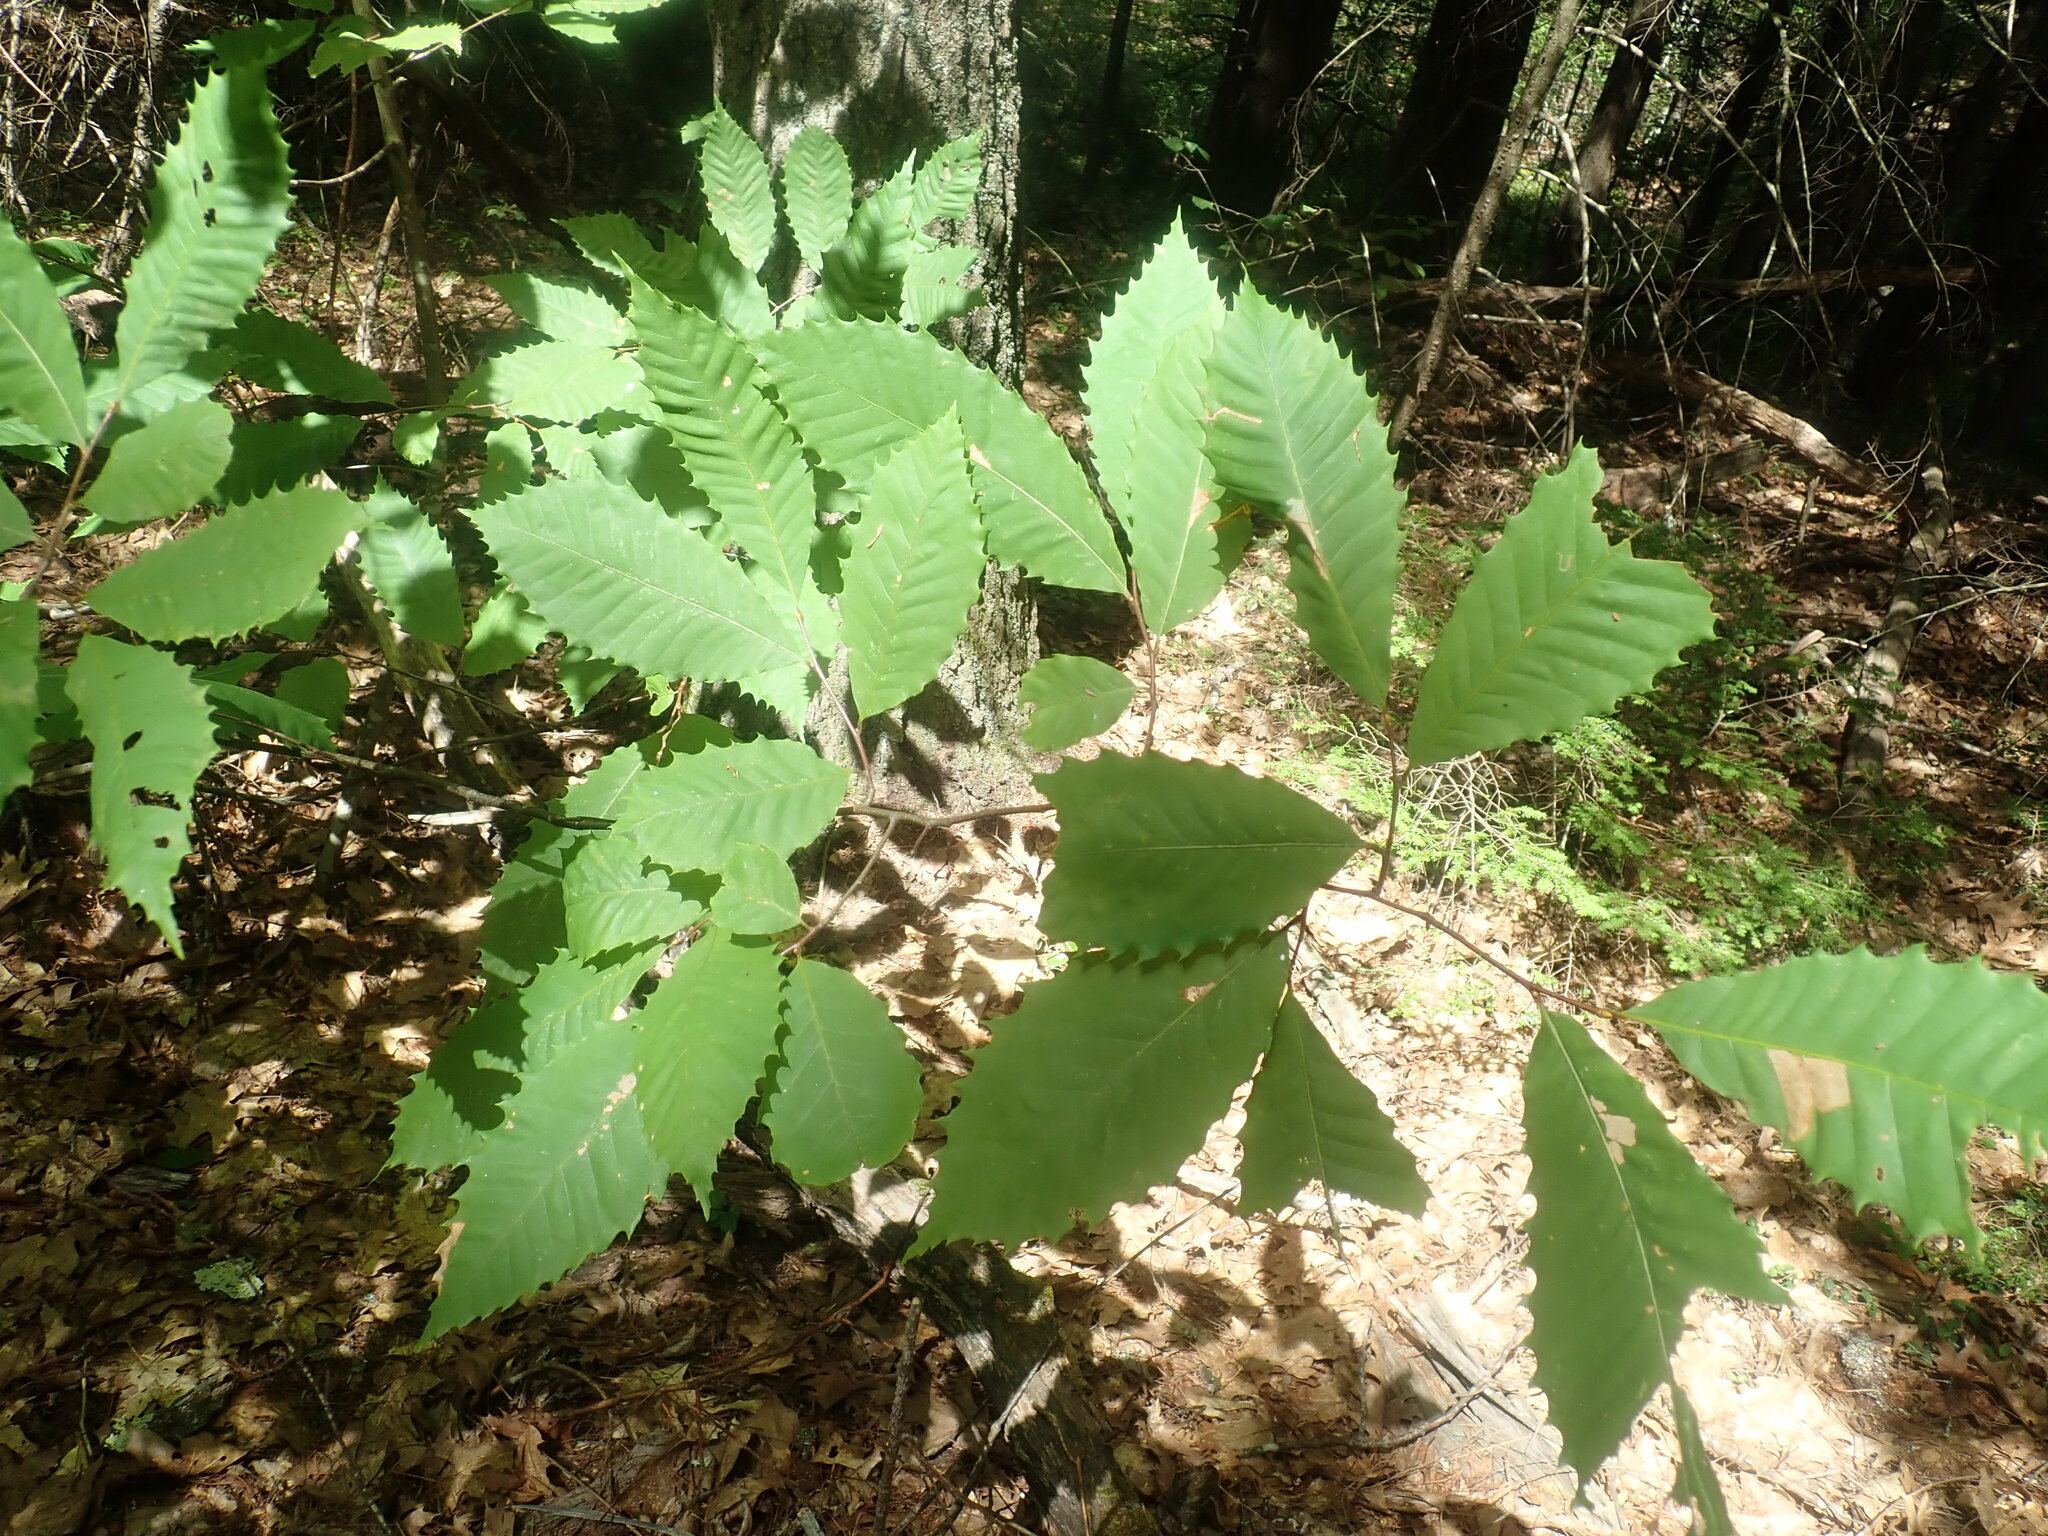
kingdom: Plantae
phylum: Tracheophyta
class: Magnoliopsida
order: Fagales
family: Fagaceae
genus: Castanea
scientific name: Castanea dentata
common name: American chestnut
